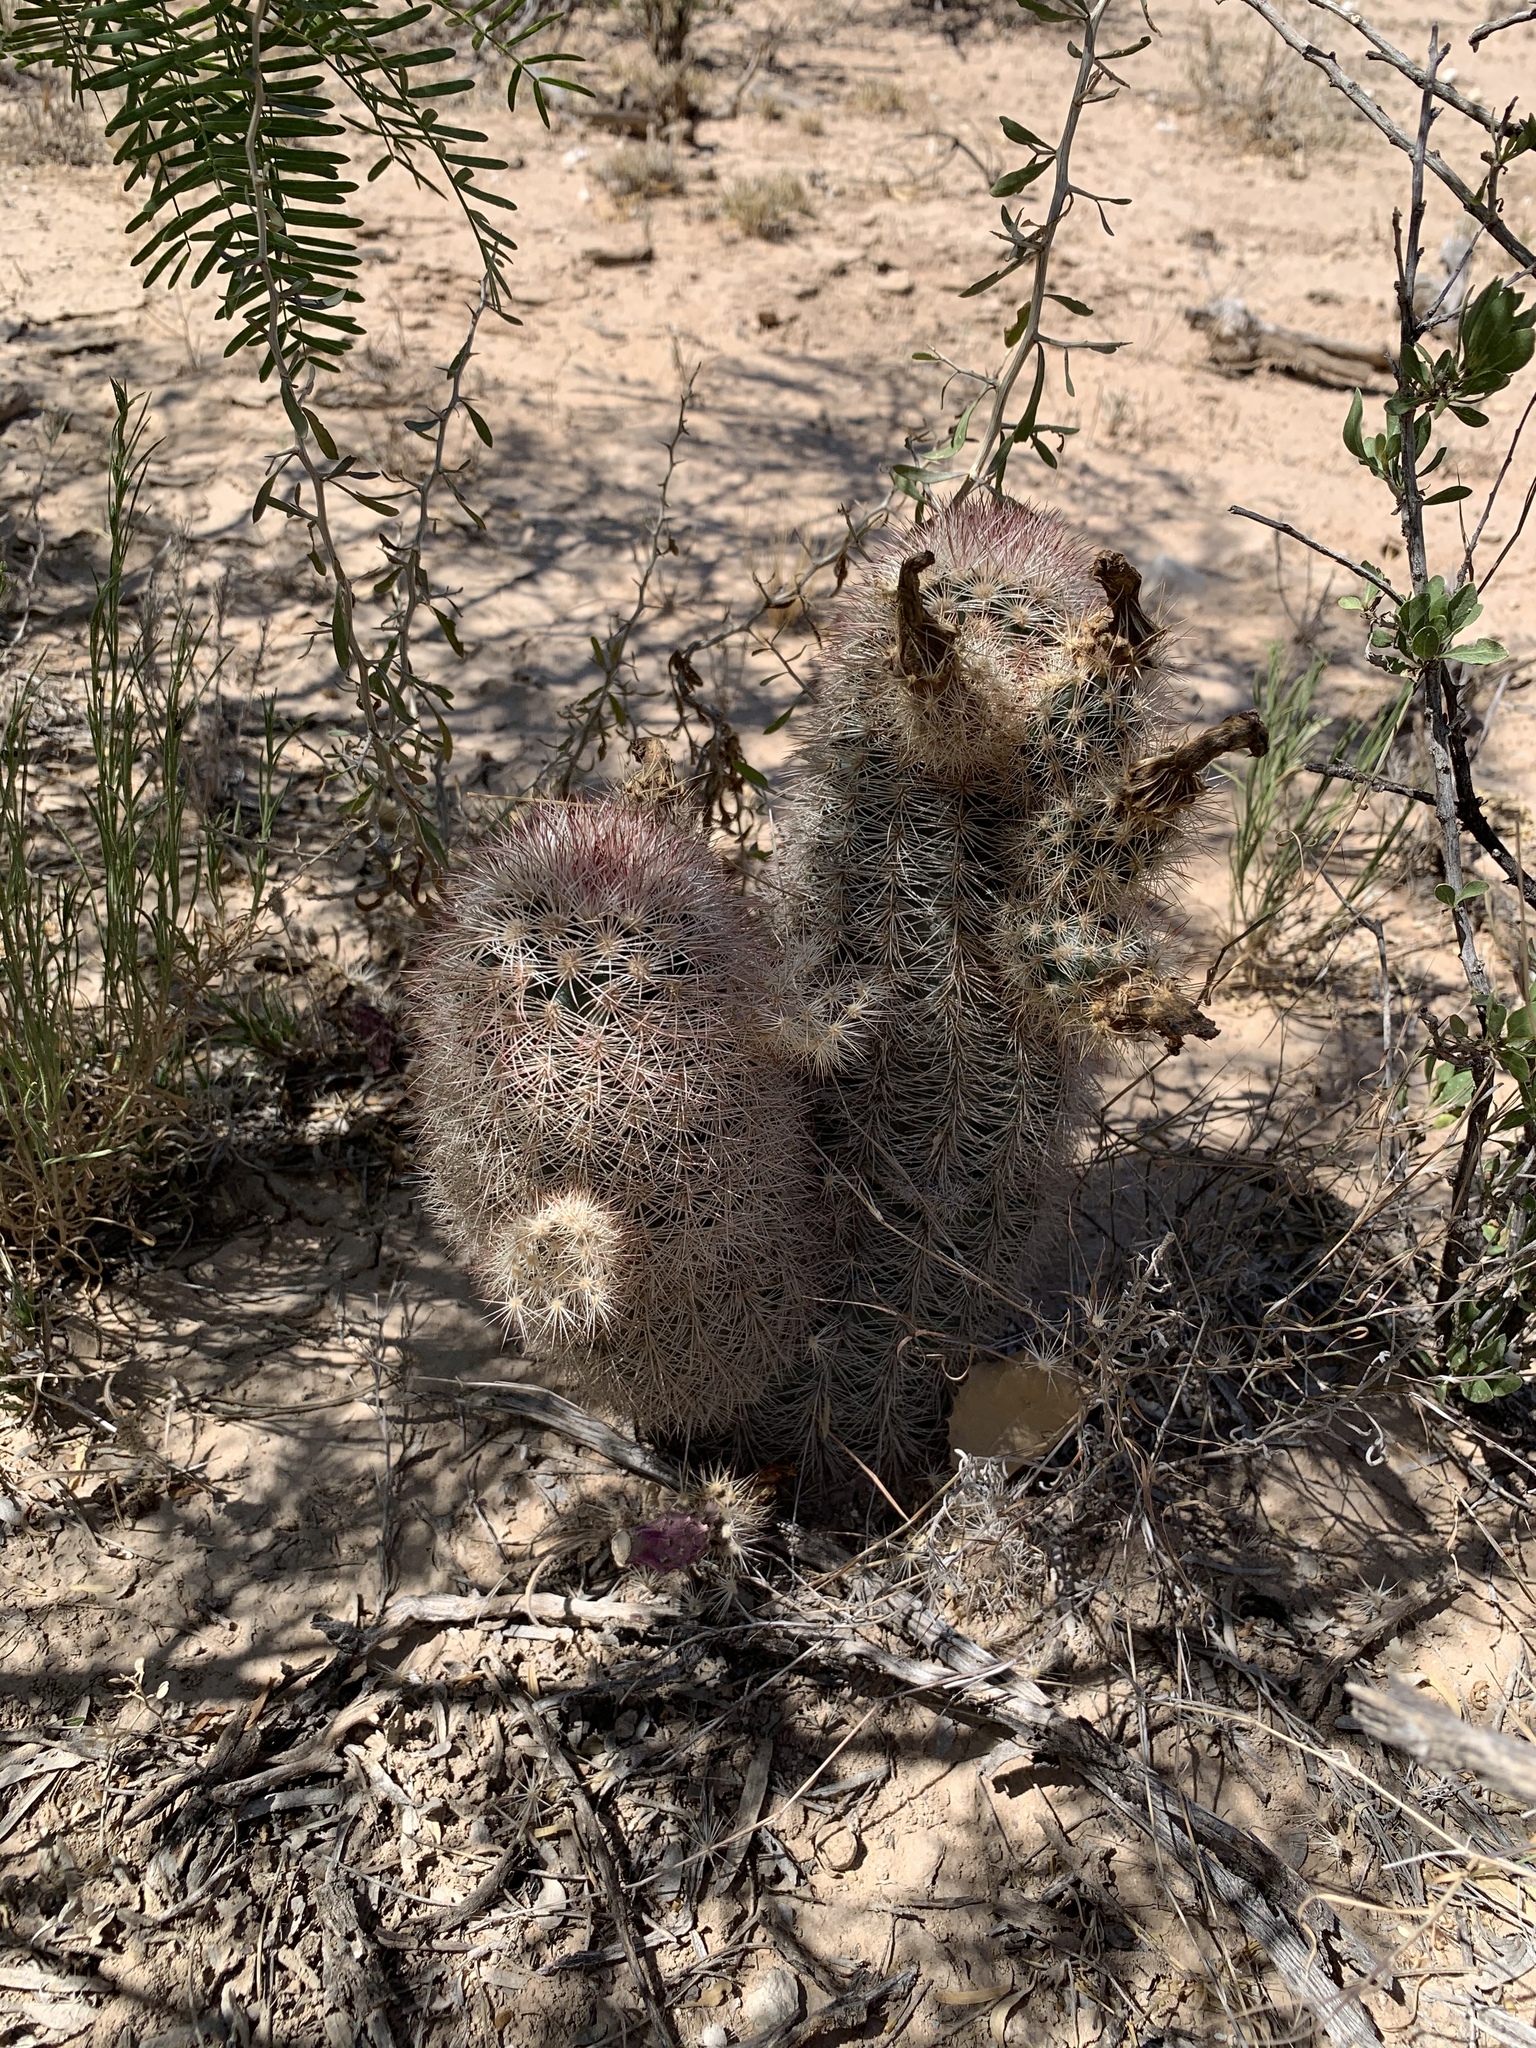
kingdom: Plantae
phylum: Tracheophyta
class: Magnoliopsida
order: Caryophyllales
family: Cactaceae
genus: Echinocereus
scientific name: Echinocereus dasyacanthus
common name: Spiny hedgehog cactus
